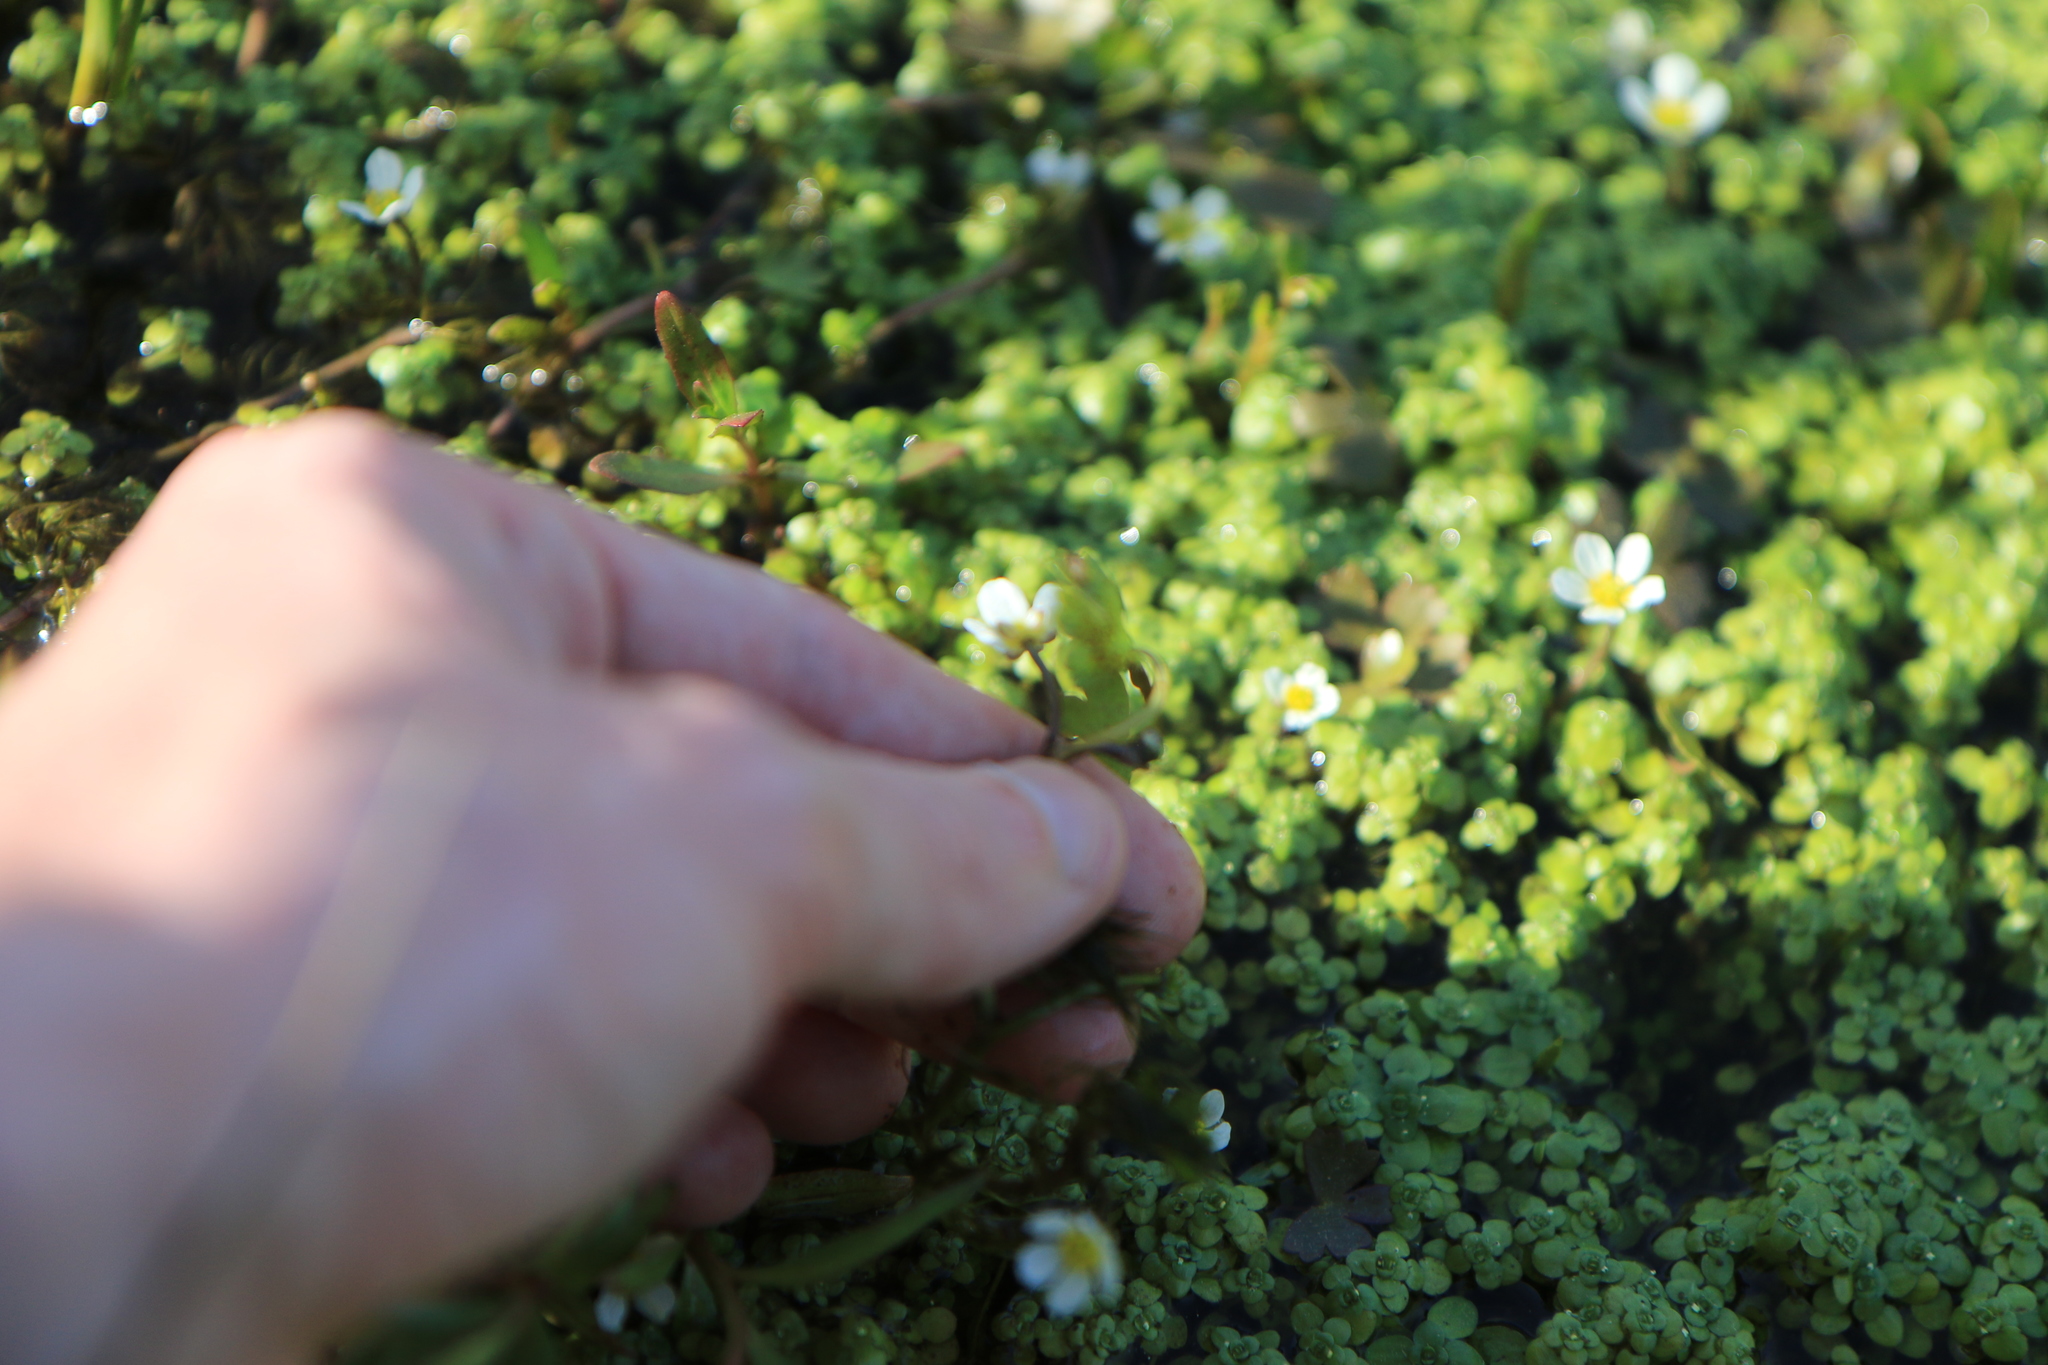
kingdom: Plantae
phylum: Tracheophyta
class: Magnoliopsida
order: Ranunculales
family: Ranunculaceae
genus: Ranunculus
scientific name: Ranunculus aquatilis
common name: Common water-crowfoot
